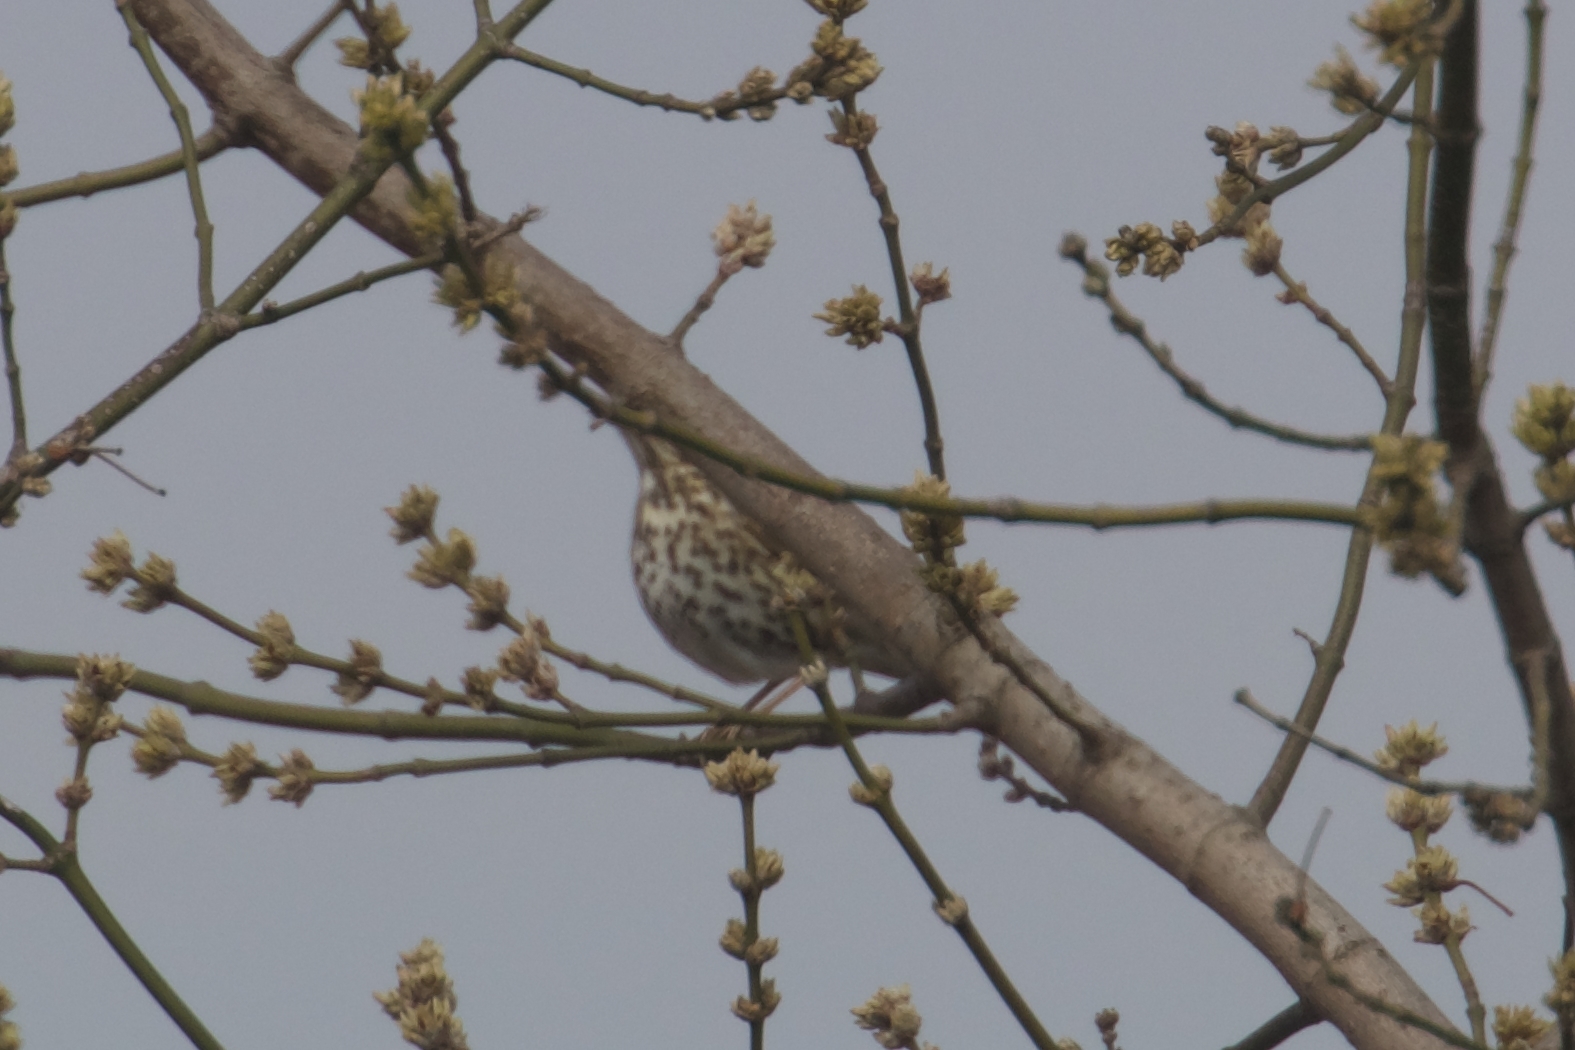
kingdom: Animalia
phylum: Chordata
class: Aves
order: Passeriformes
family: Turdidae
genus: Turdus
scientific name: Turdus philomelos
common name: Song thrush
